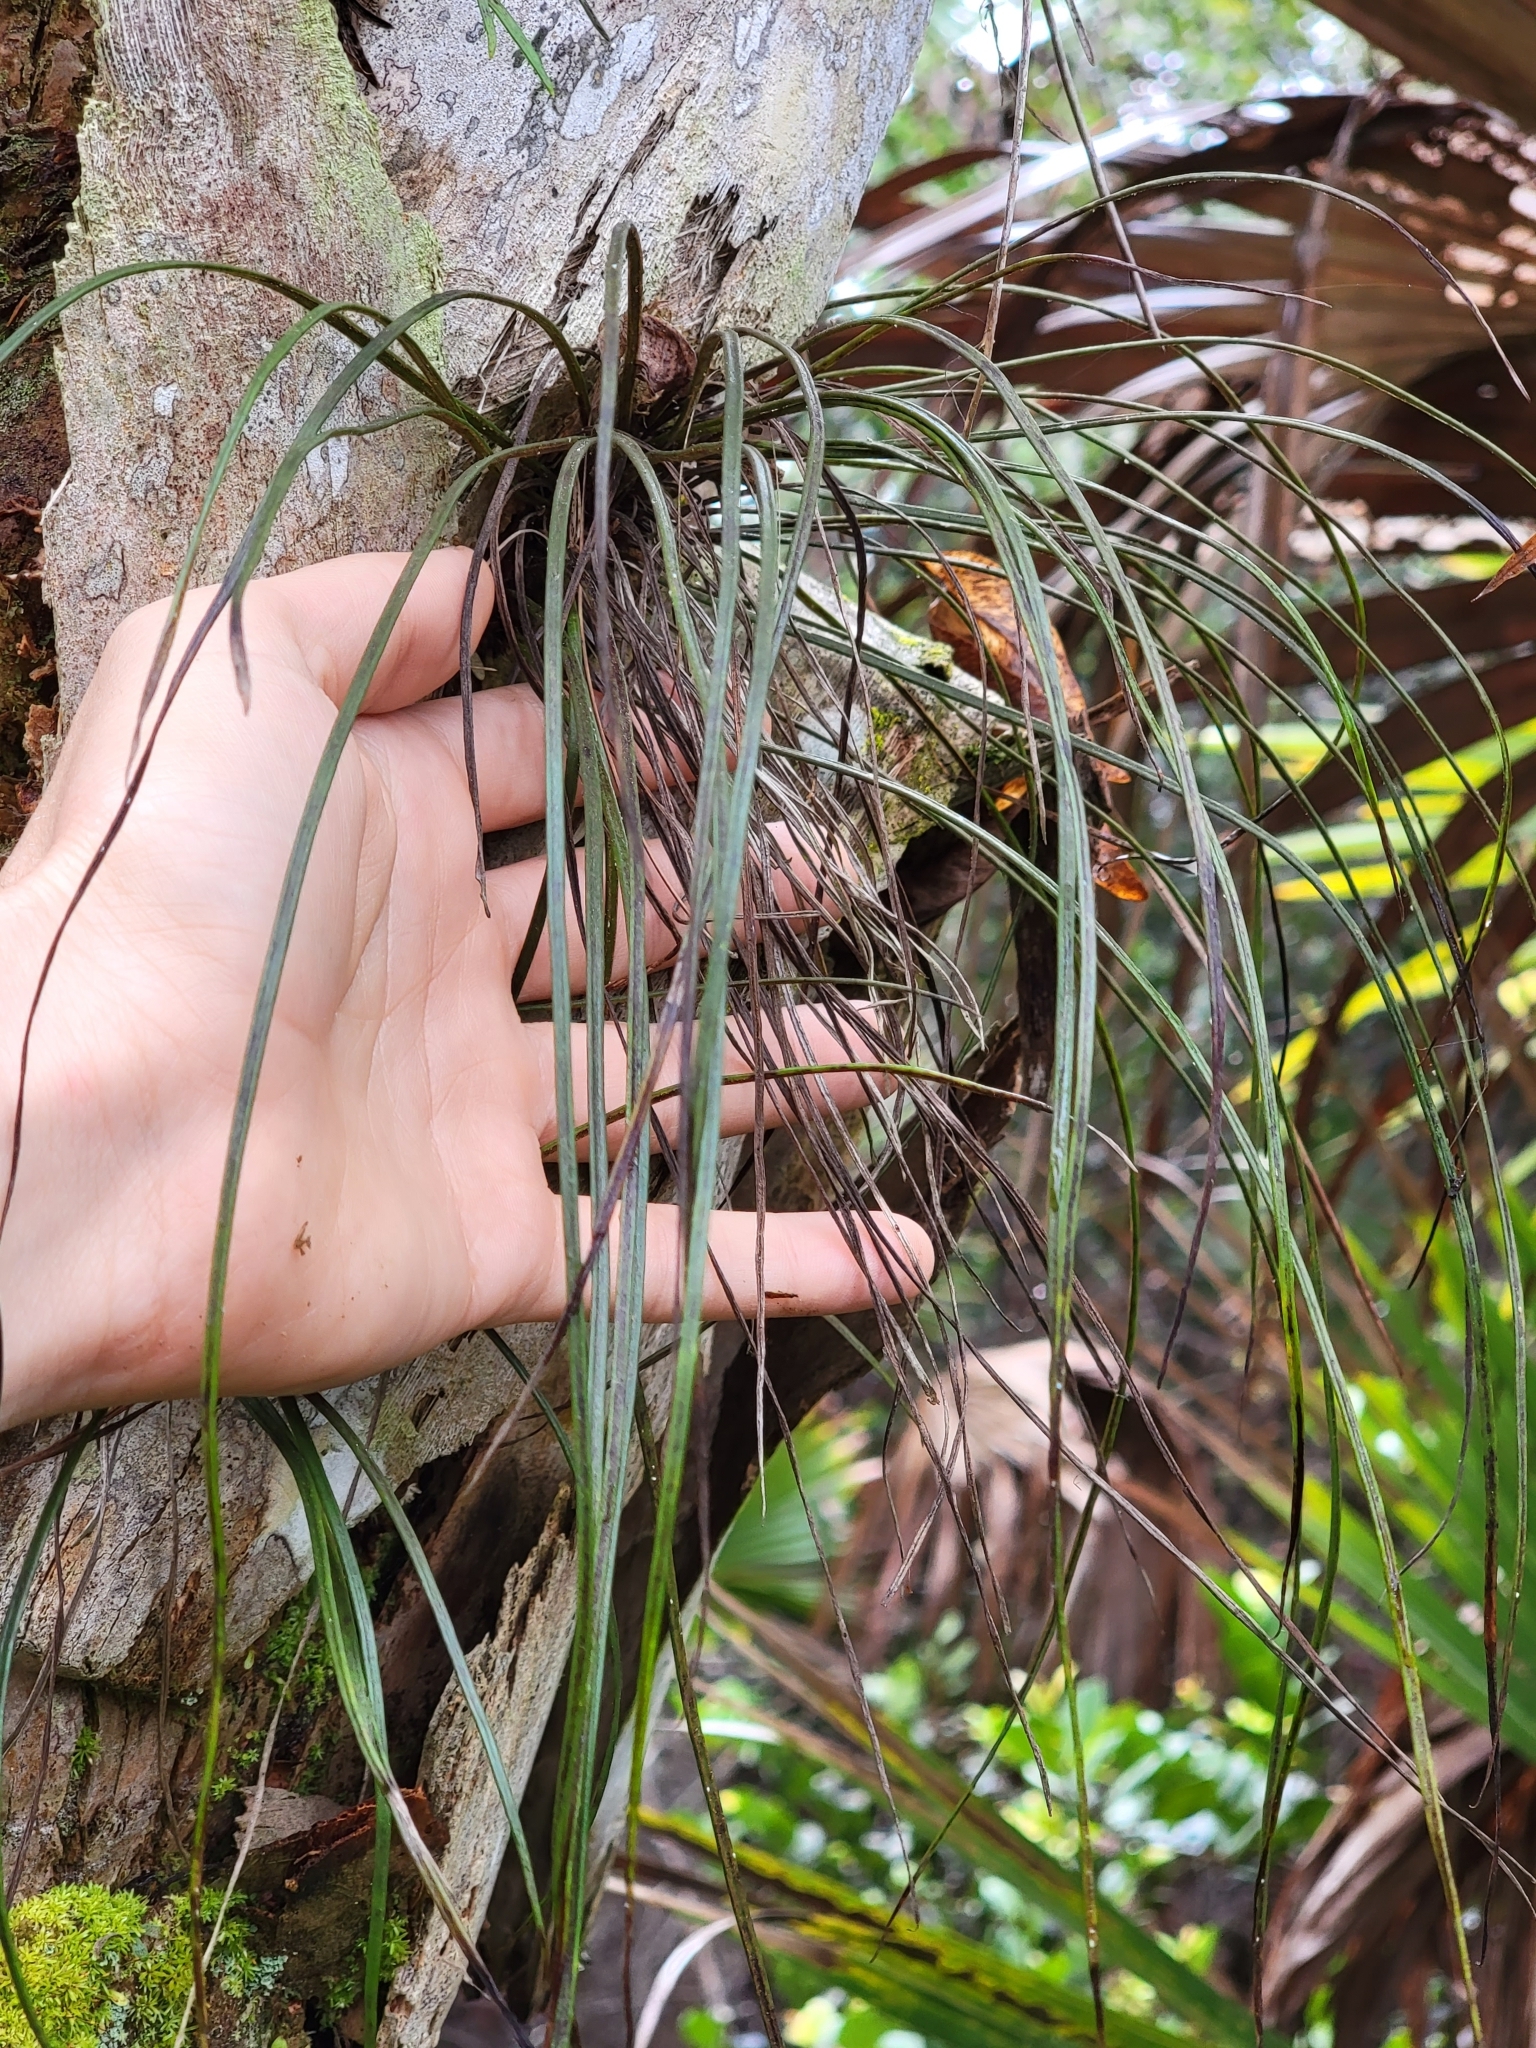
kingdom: Plantae
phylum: Tracheophyta
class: Polypodiopsida
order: Polypodiales
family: Pteridaceae
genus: Vittaria
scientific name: Vittaria lineata
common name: Shoestring fern
